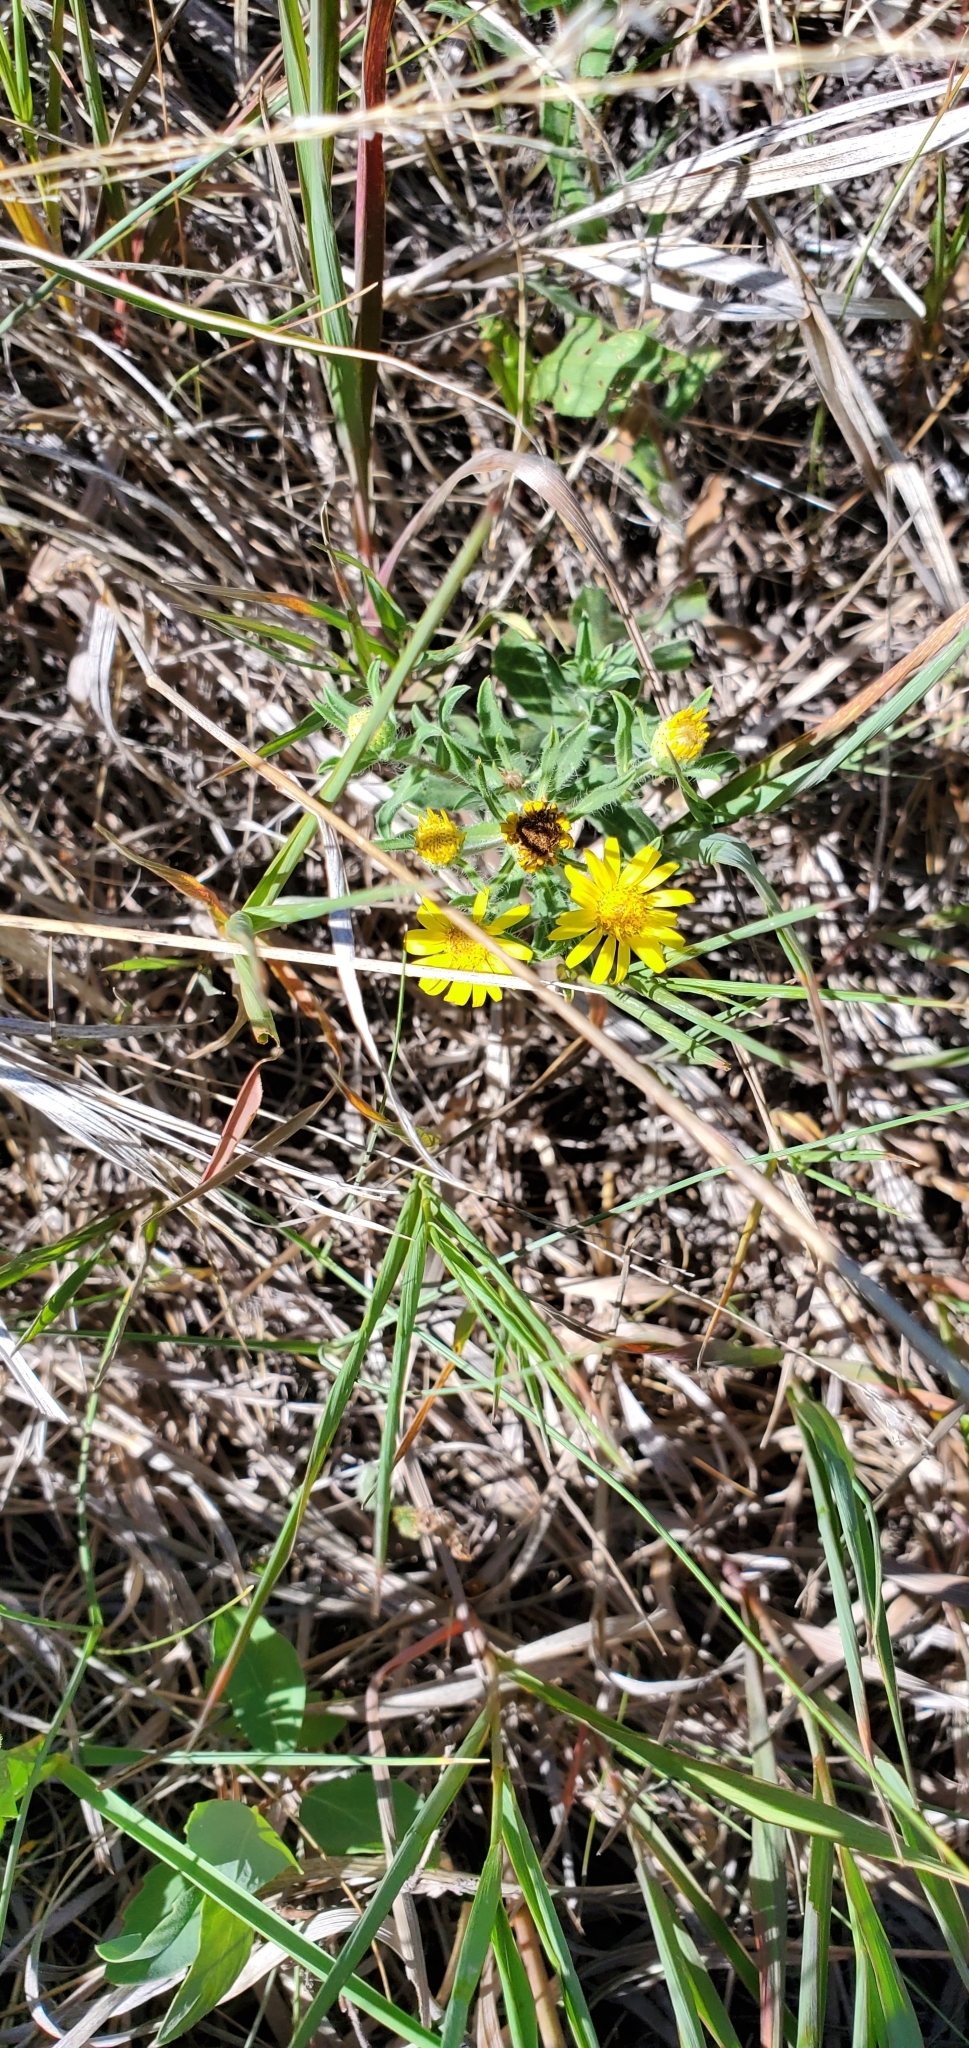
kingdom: Plantae
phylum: Tracheophyta
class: Magnoliopsida
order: Asterales
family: Asteraceae
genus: Heterotheca
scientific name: Heterotheca villosa
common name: Hairy false goldenaster
